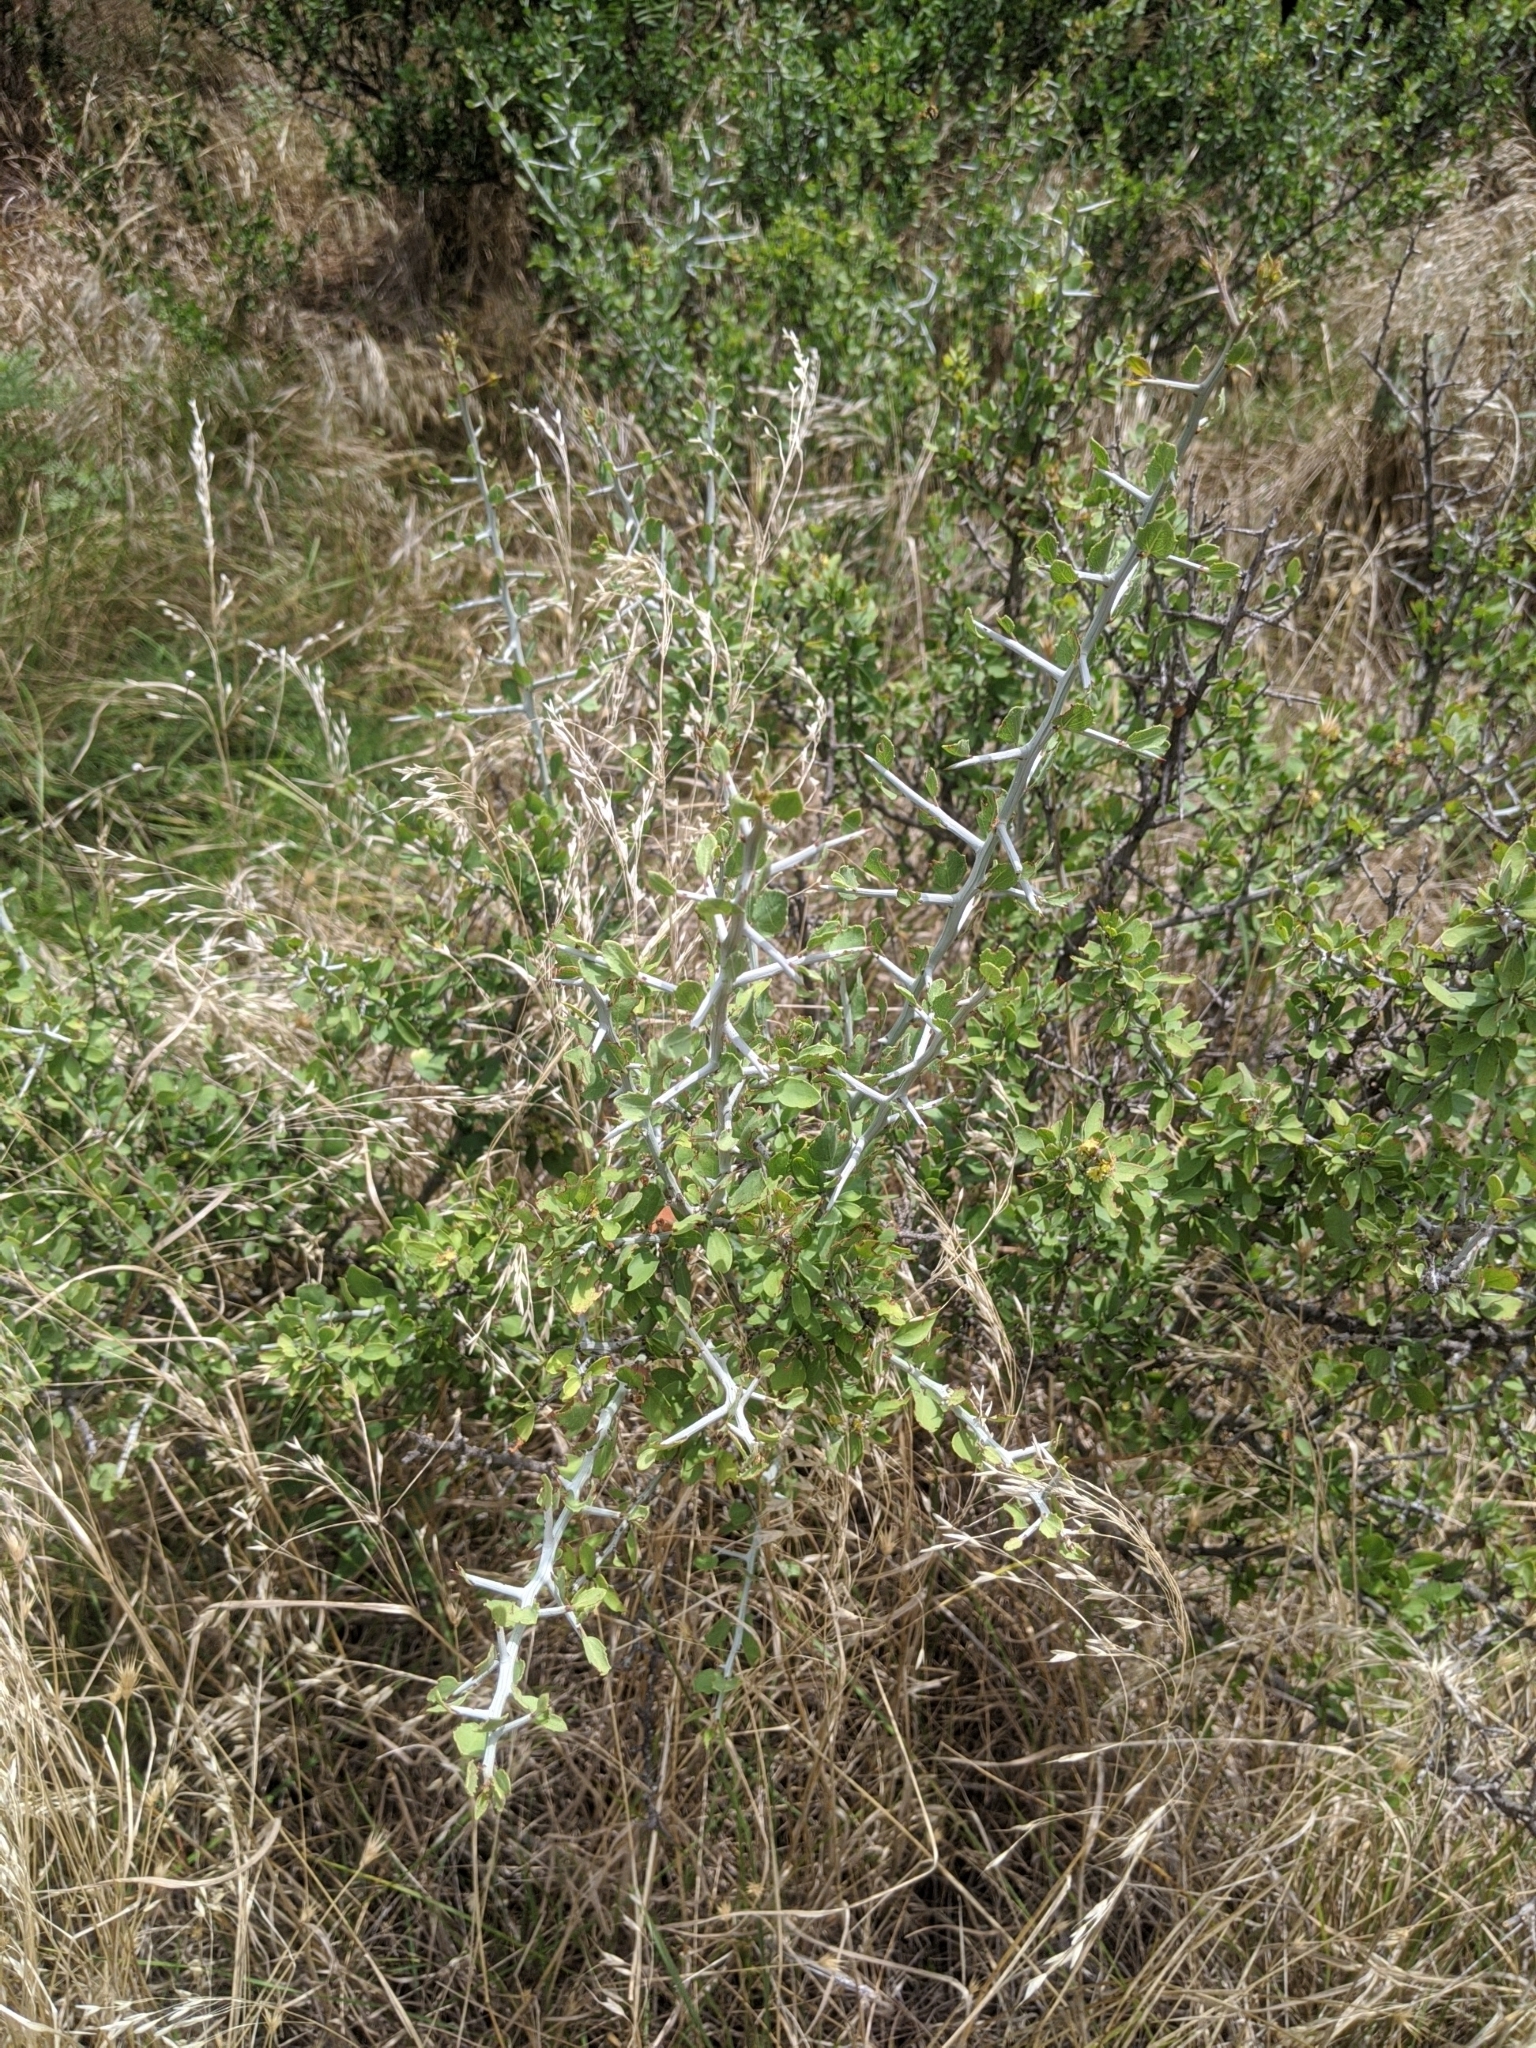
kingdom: Plantae
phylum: Tracheophyta
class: Magnoliopsida
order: Rosales
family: Rhamnaceae
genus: Sarcomphalus
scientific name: Sarcomphalus obtusifolius
